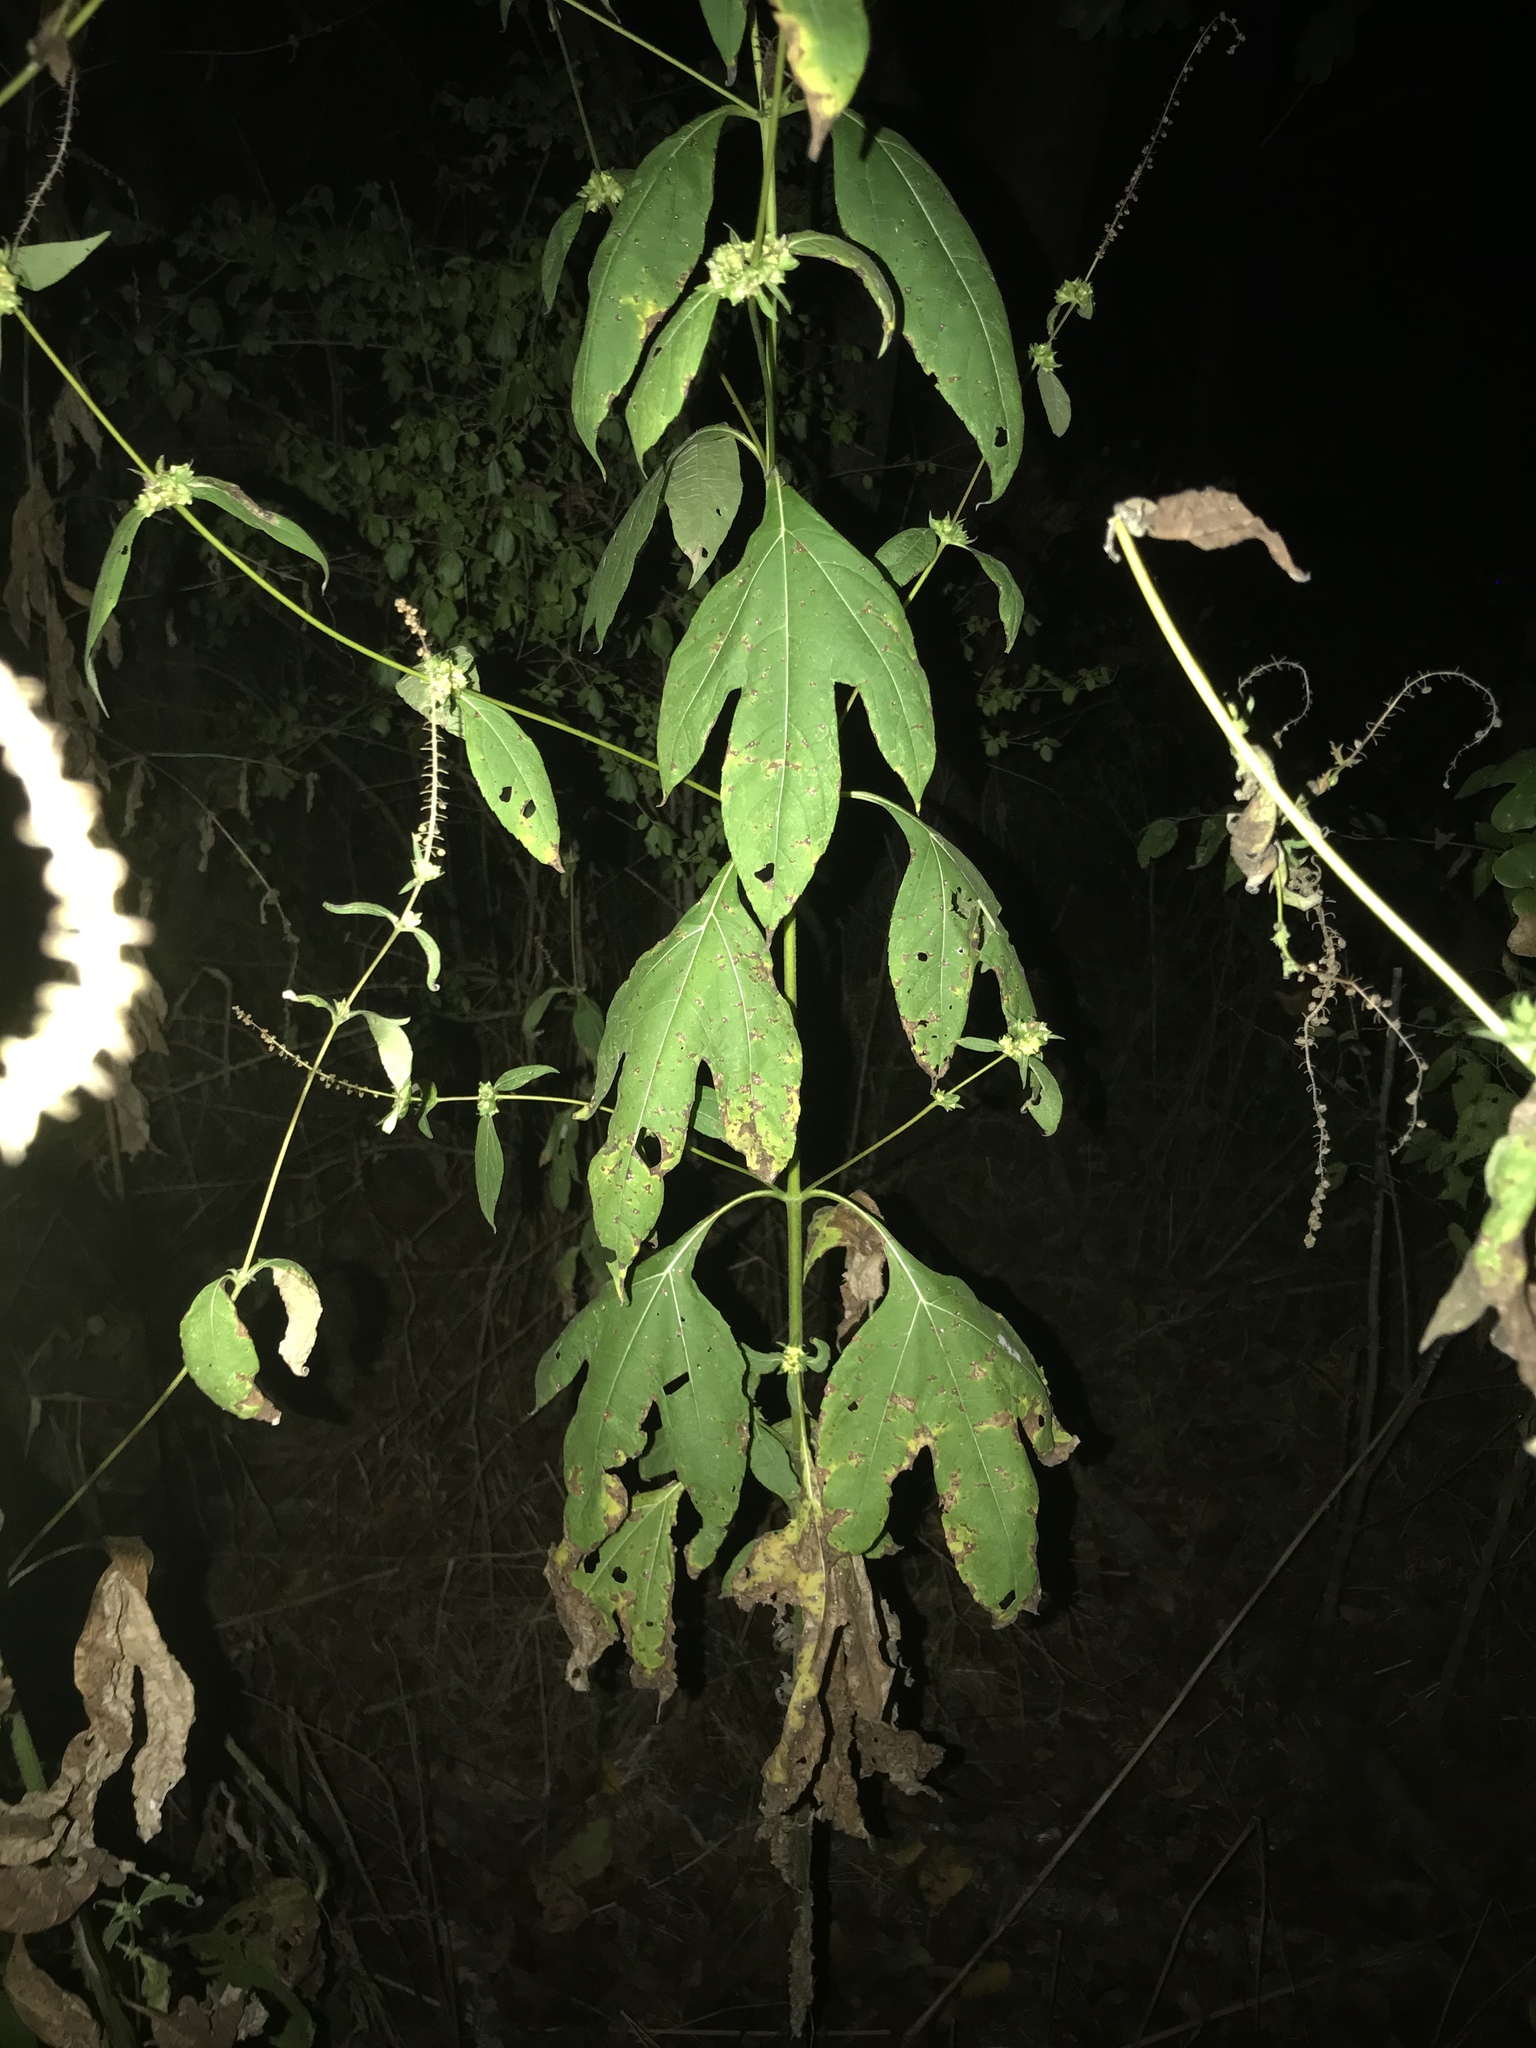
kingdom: Plantae
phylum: Tracheophyta
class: Magnoliopsida
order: Asterales
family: Asteraceae
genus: Ambrosia
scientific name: Ambrosia trifida
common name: Giant ragweed
